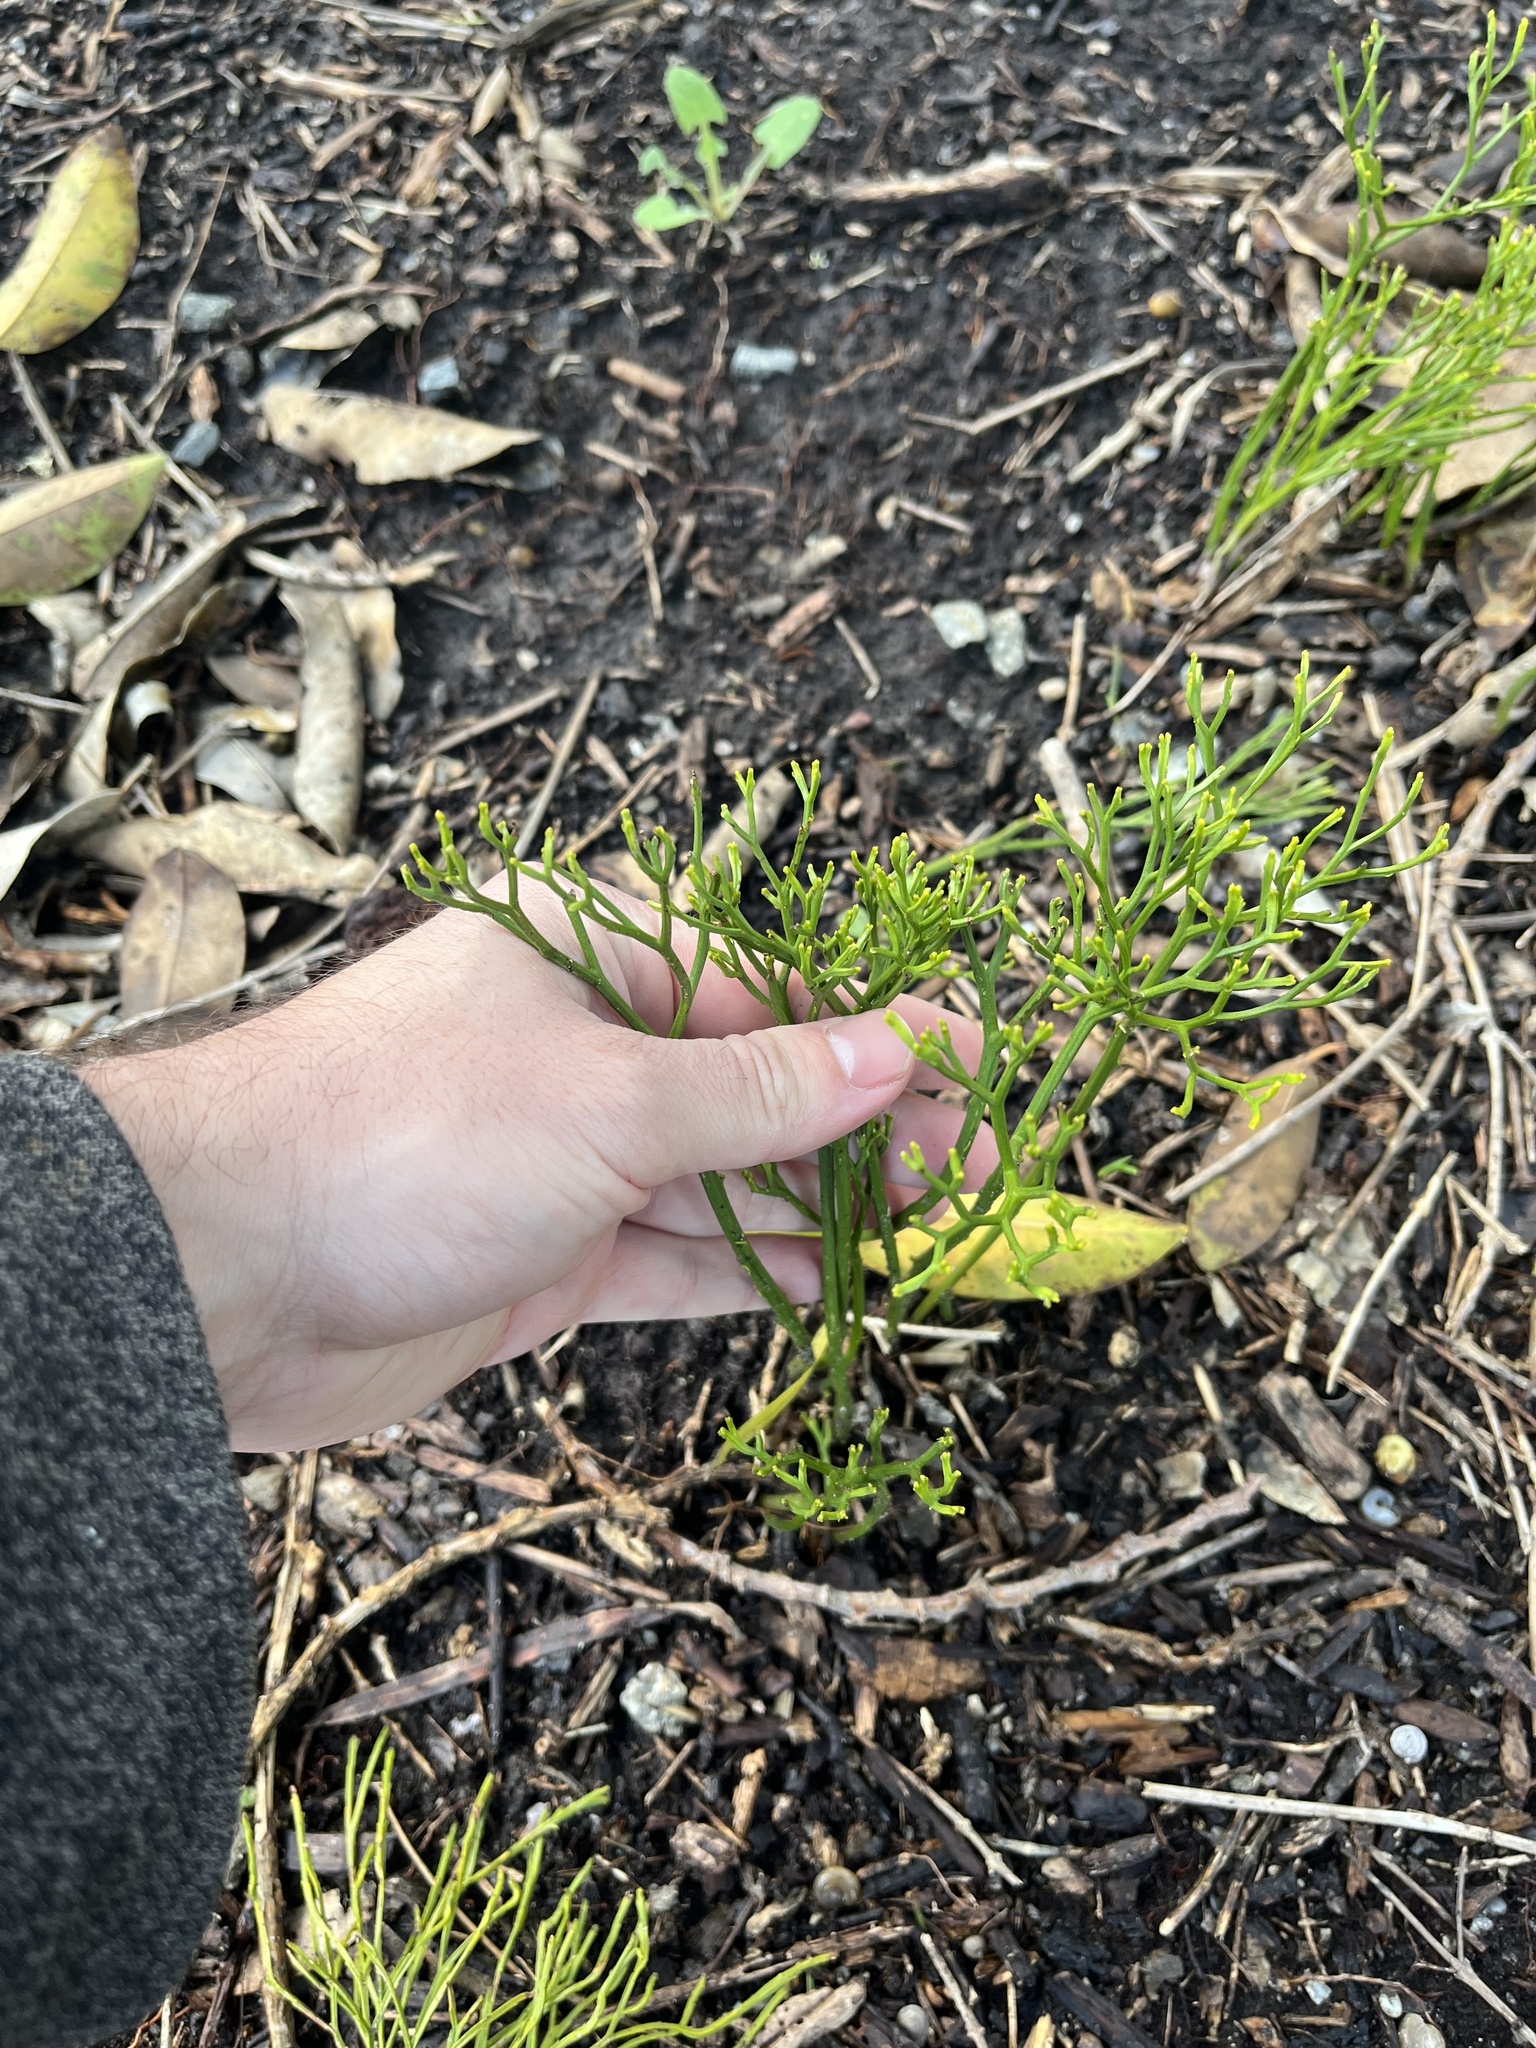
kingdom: Plantae
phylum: Tracheophyta
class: Polypodiopsida
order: Psilotales
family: Psilotaceae
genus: Psilotum
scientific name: Psilotum nudum
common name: Skeleton fork fern
